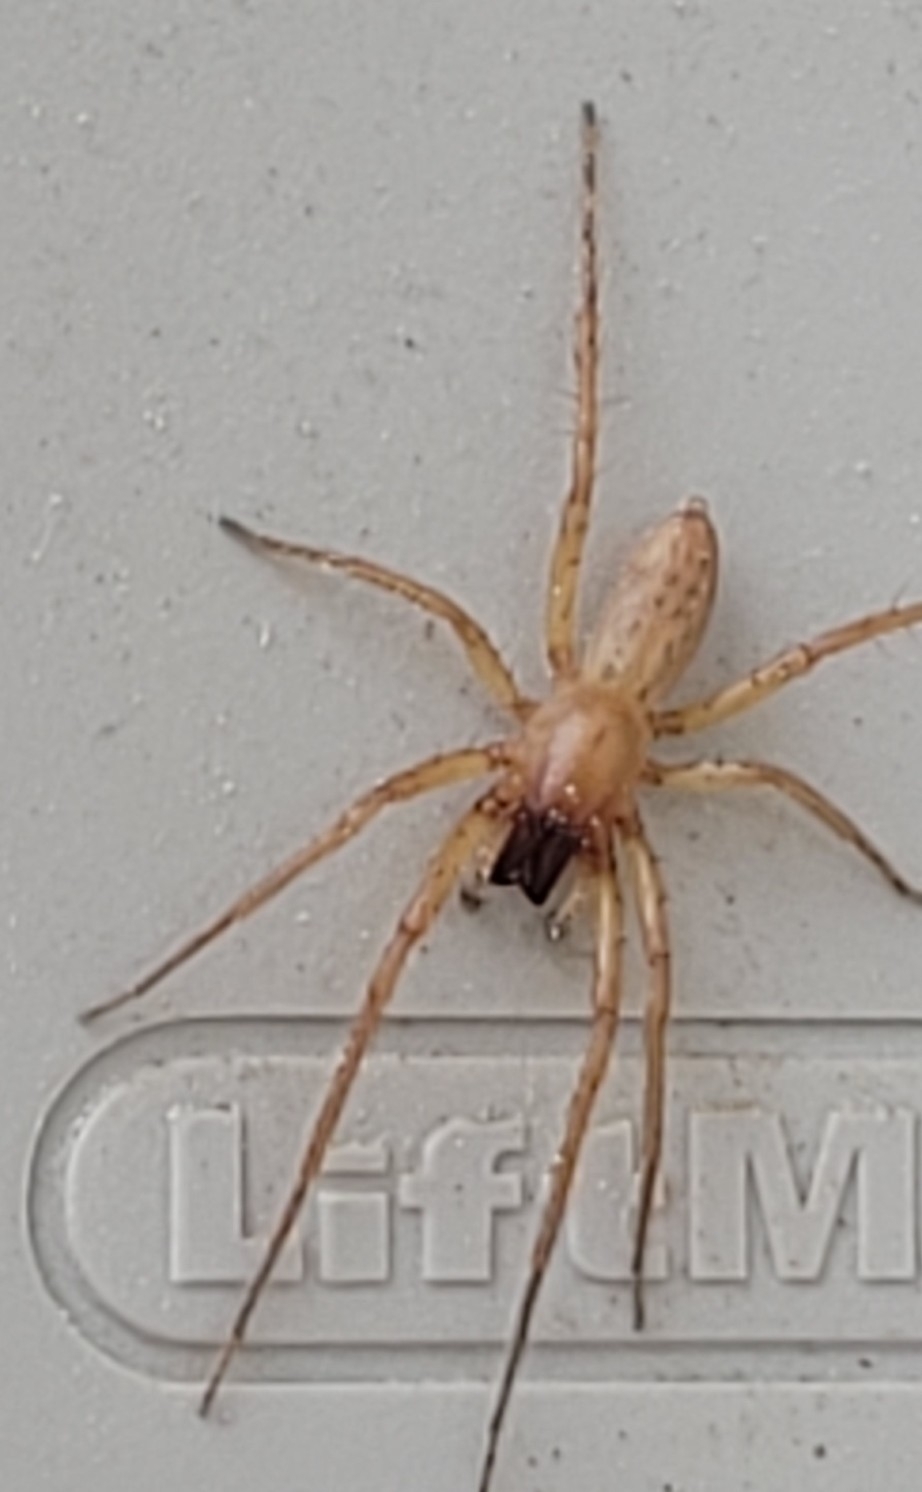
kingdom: Animalia
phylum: Arthropoda
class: Arachnida
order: Araneae
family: Anyphaenidae
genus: Hibana
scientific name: Hibana velox
